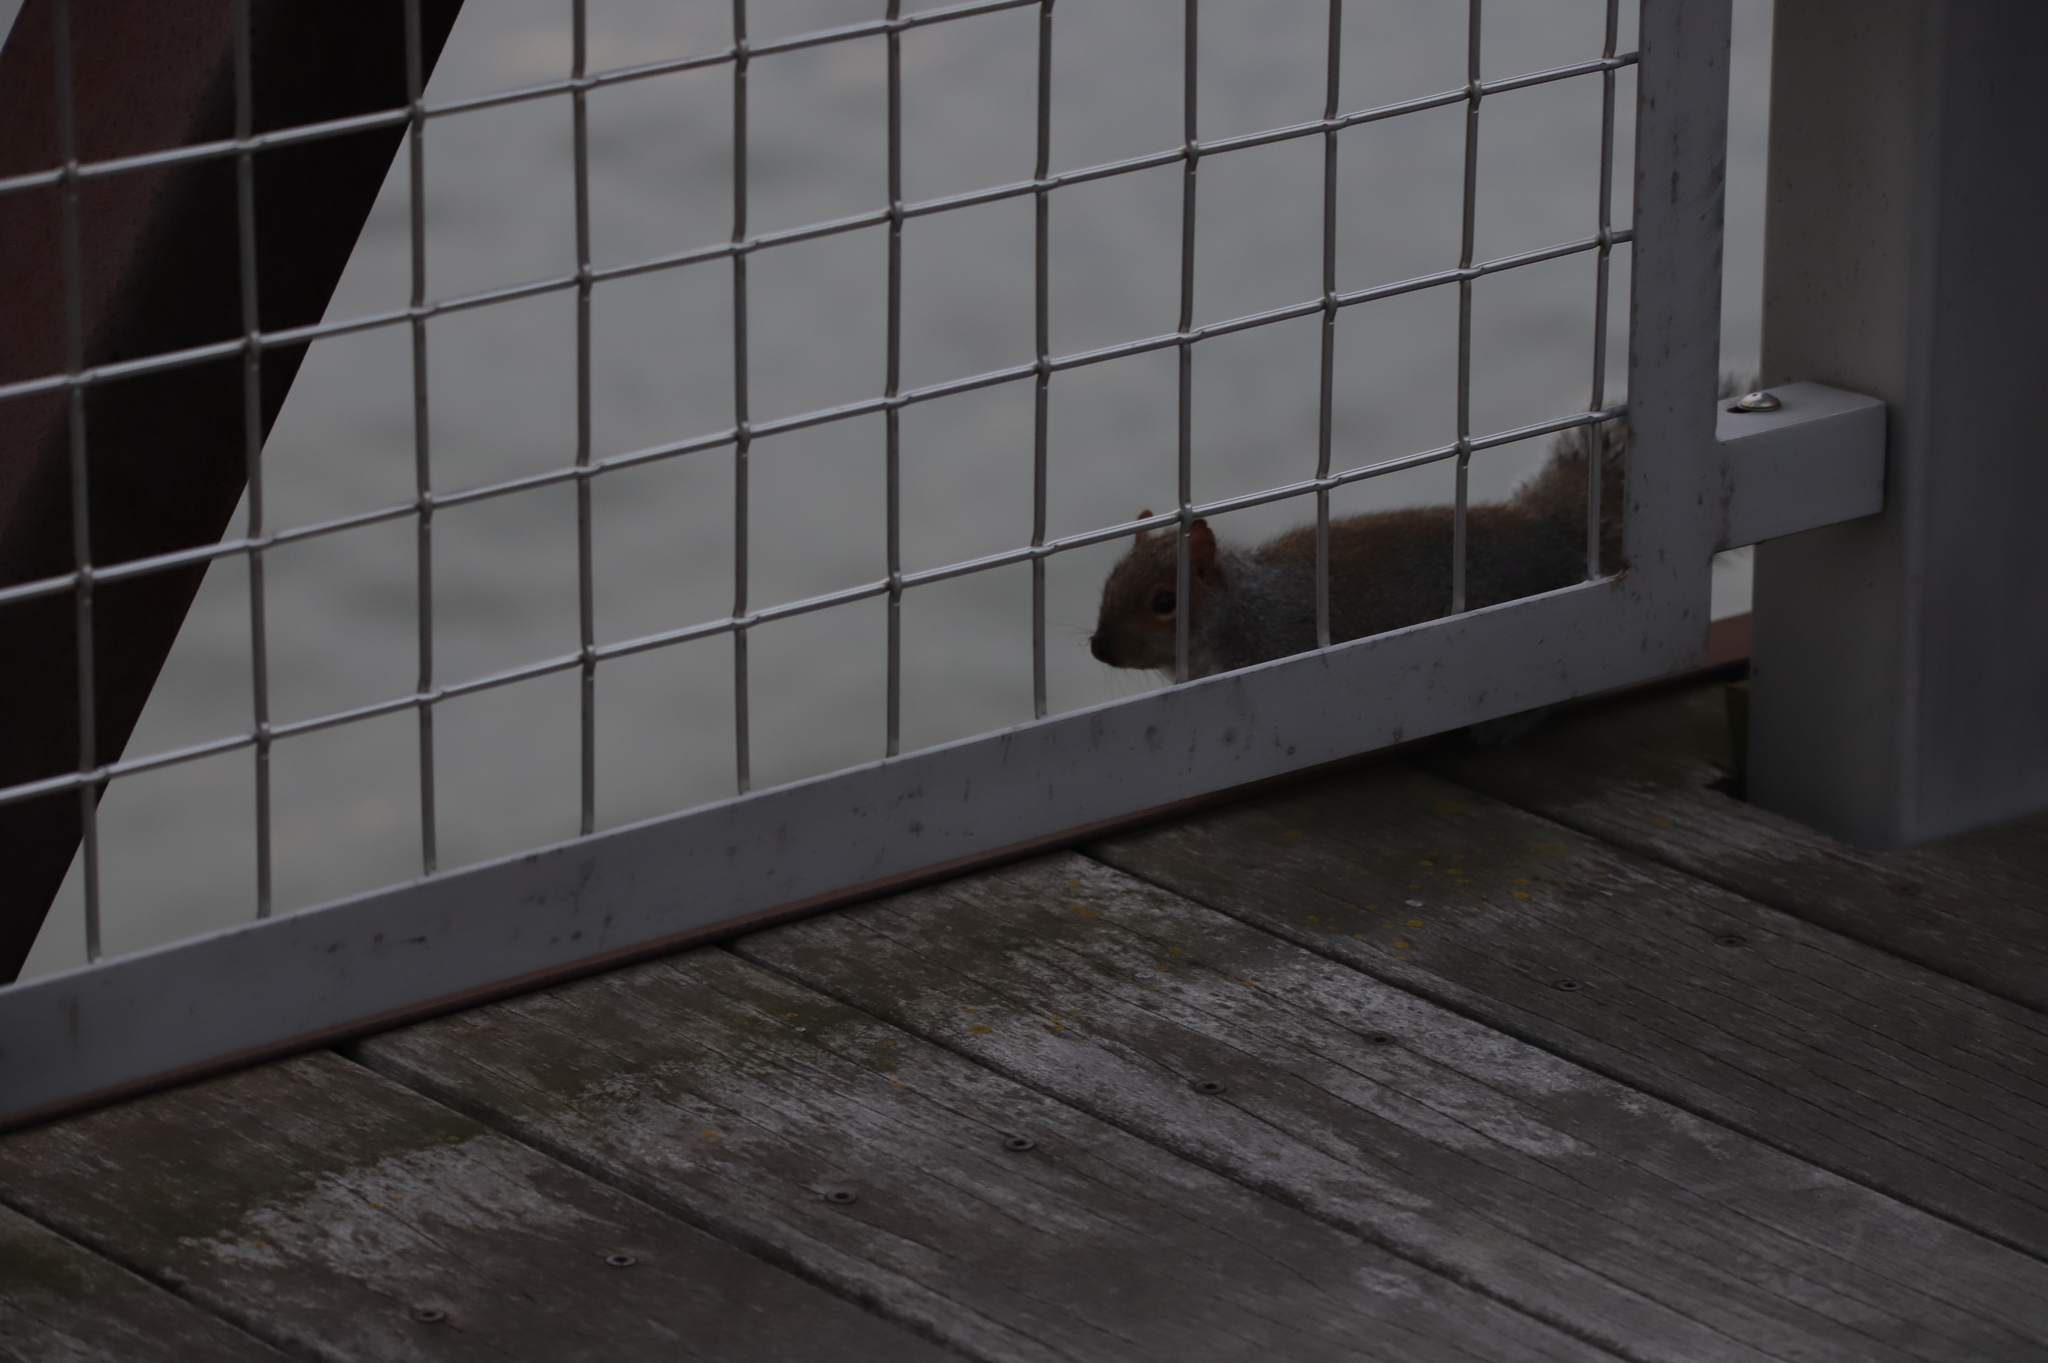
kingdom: Animalia
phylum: Chordata
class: Mammalia
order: Rodentia
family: Sciuridae
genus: Sciurus
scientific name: Sciurus carolinensis
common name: Eastern gray squirrel
